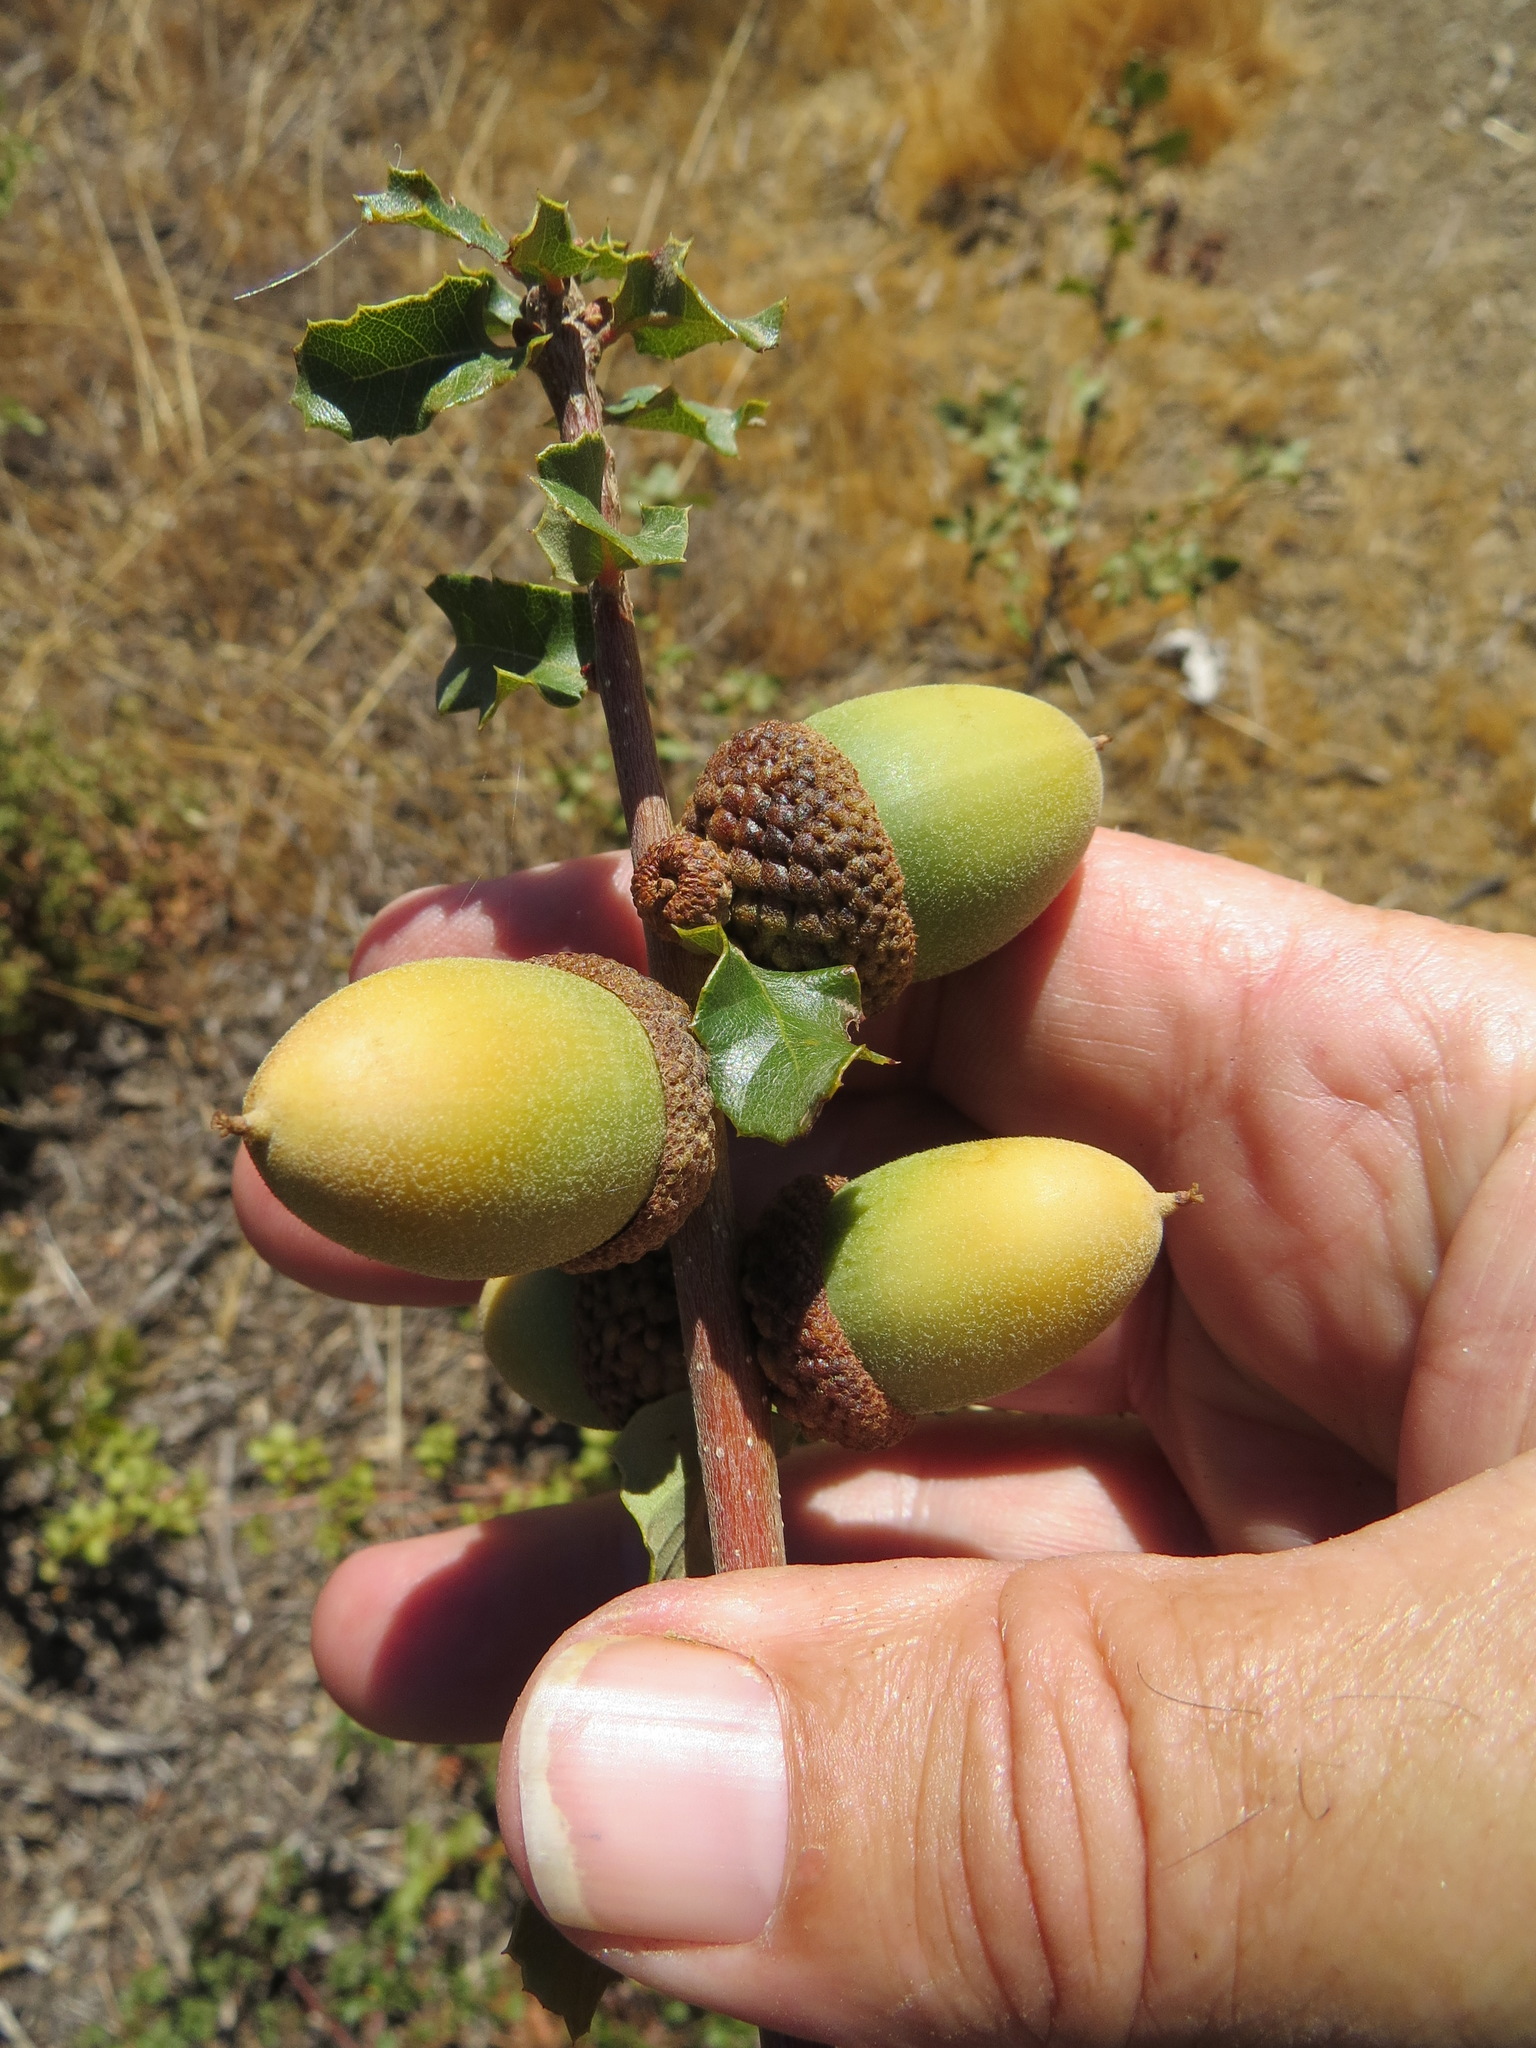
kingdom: Plantae
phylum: Tracheophyta
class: Magnoliopsida
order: Fagales
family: Fagaceae
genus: Quercus
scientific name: Quercus berberidifolia
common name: California scrub oak
